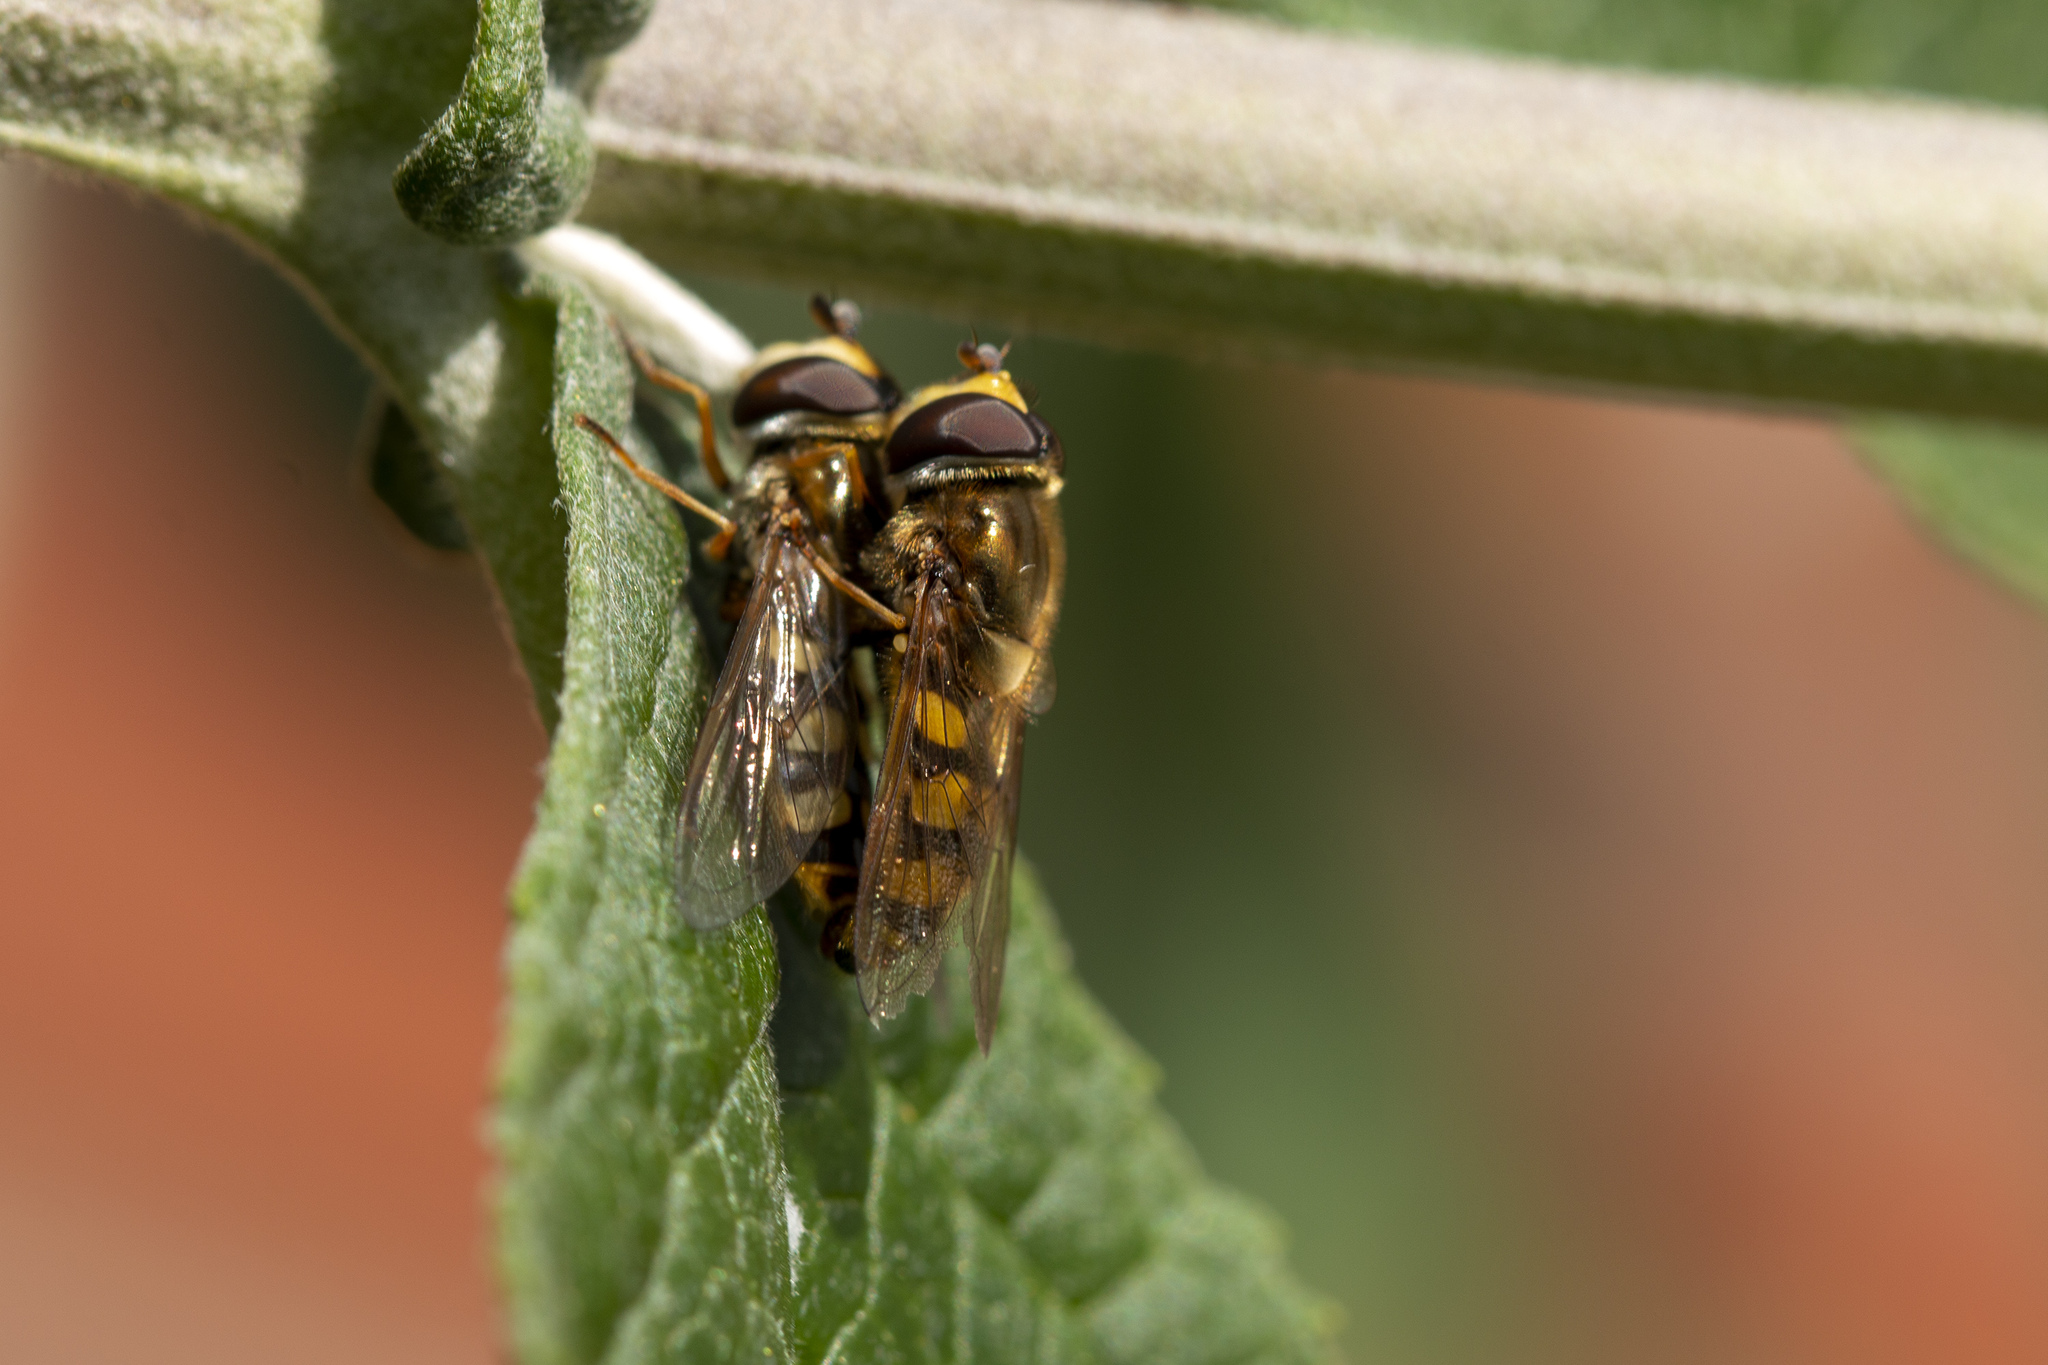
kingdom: Animalia
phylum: Arthropoda
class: Insecta
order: Diptera
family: Syrphidae
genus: Eupeodes
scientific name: Eupeodes corollae
